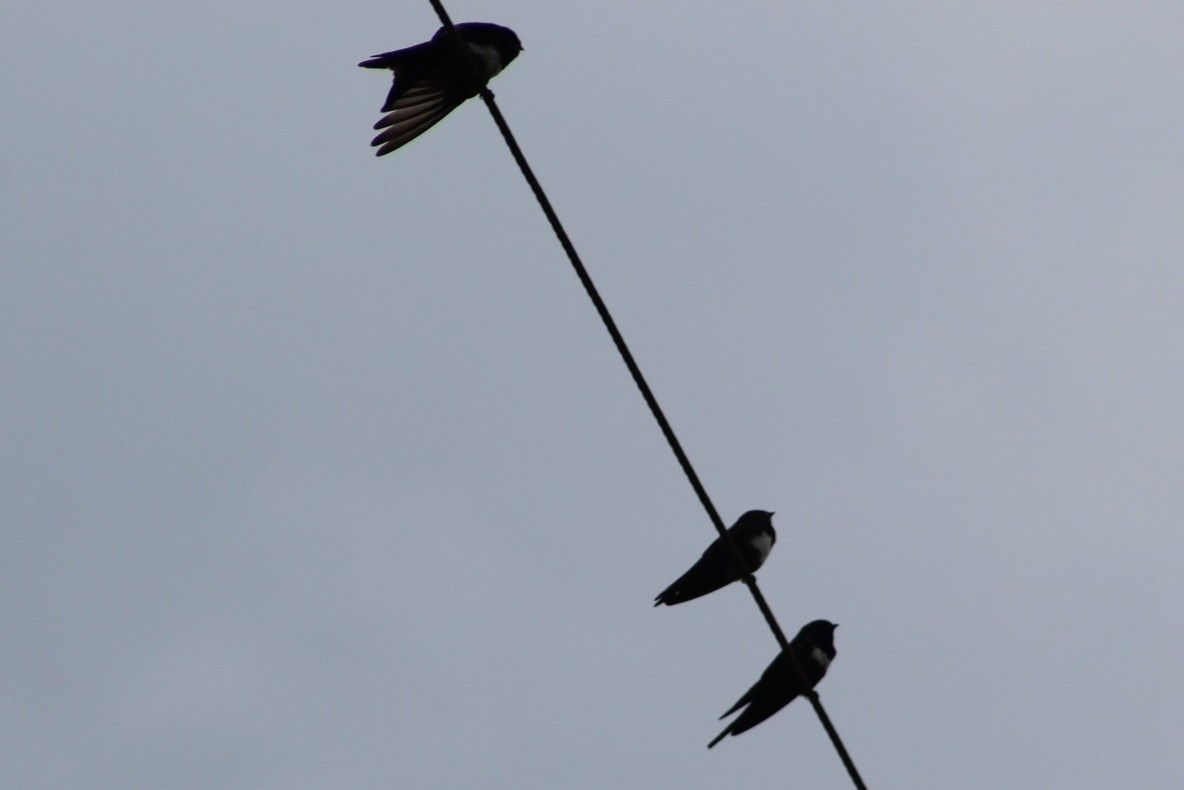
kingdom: Animalia
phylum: Chordata
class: Aves
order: Passeriformes
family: Hirundinidae
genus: Atticora
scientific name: Atticora fasciata
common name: White-banded swallow
